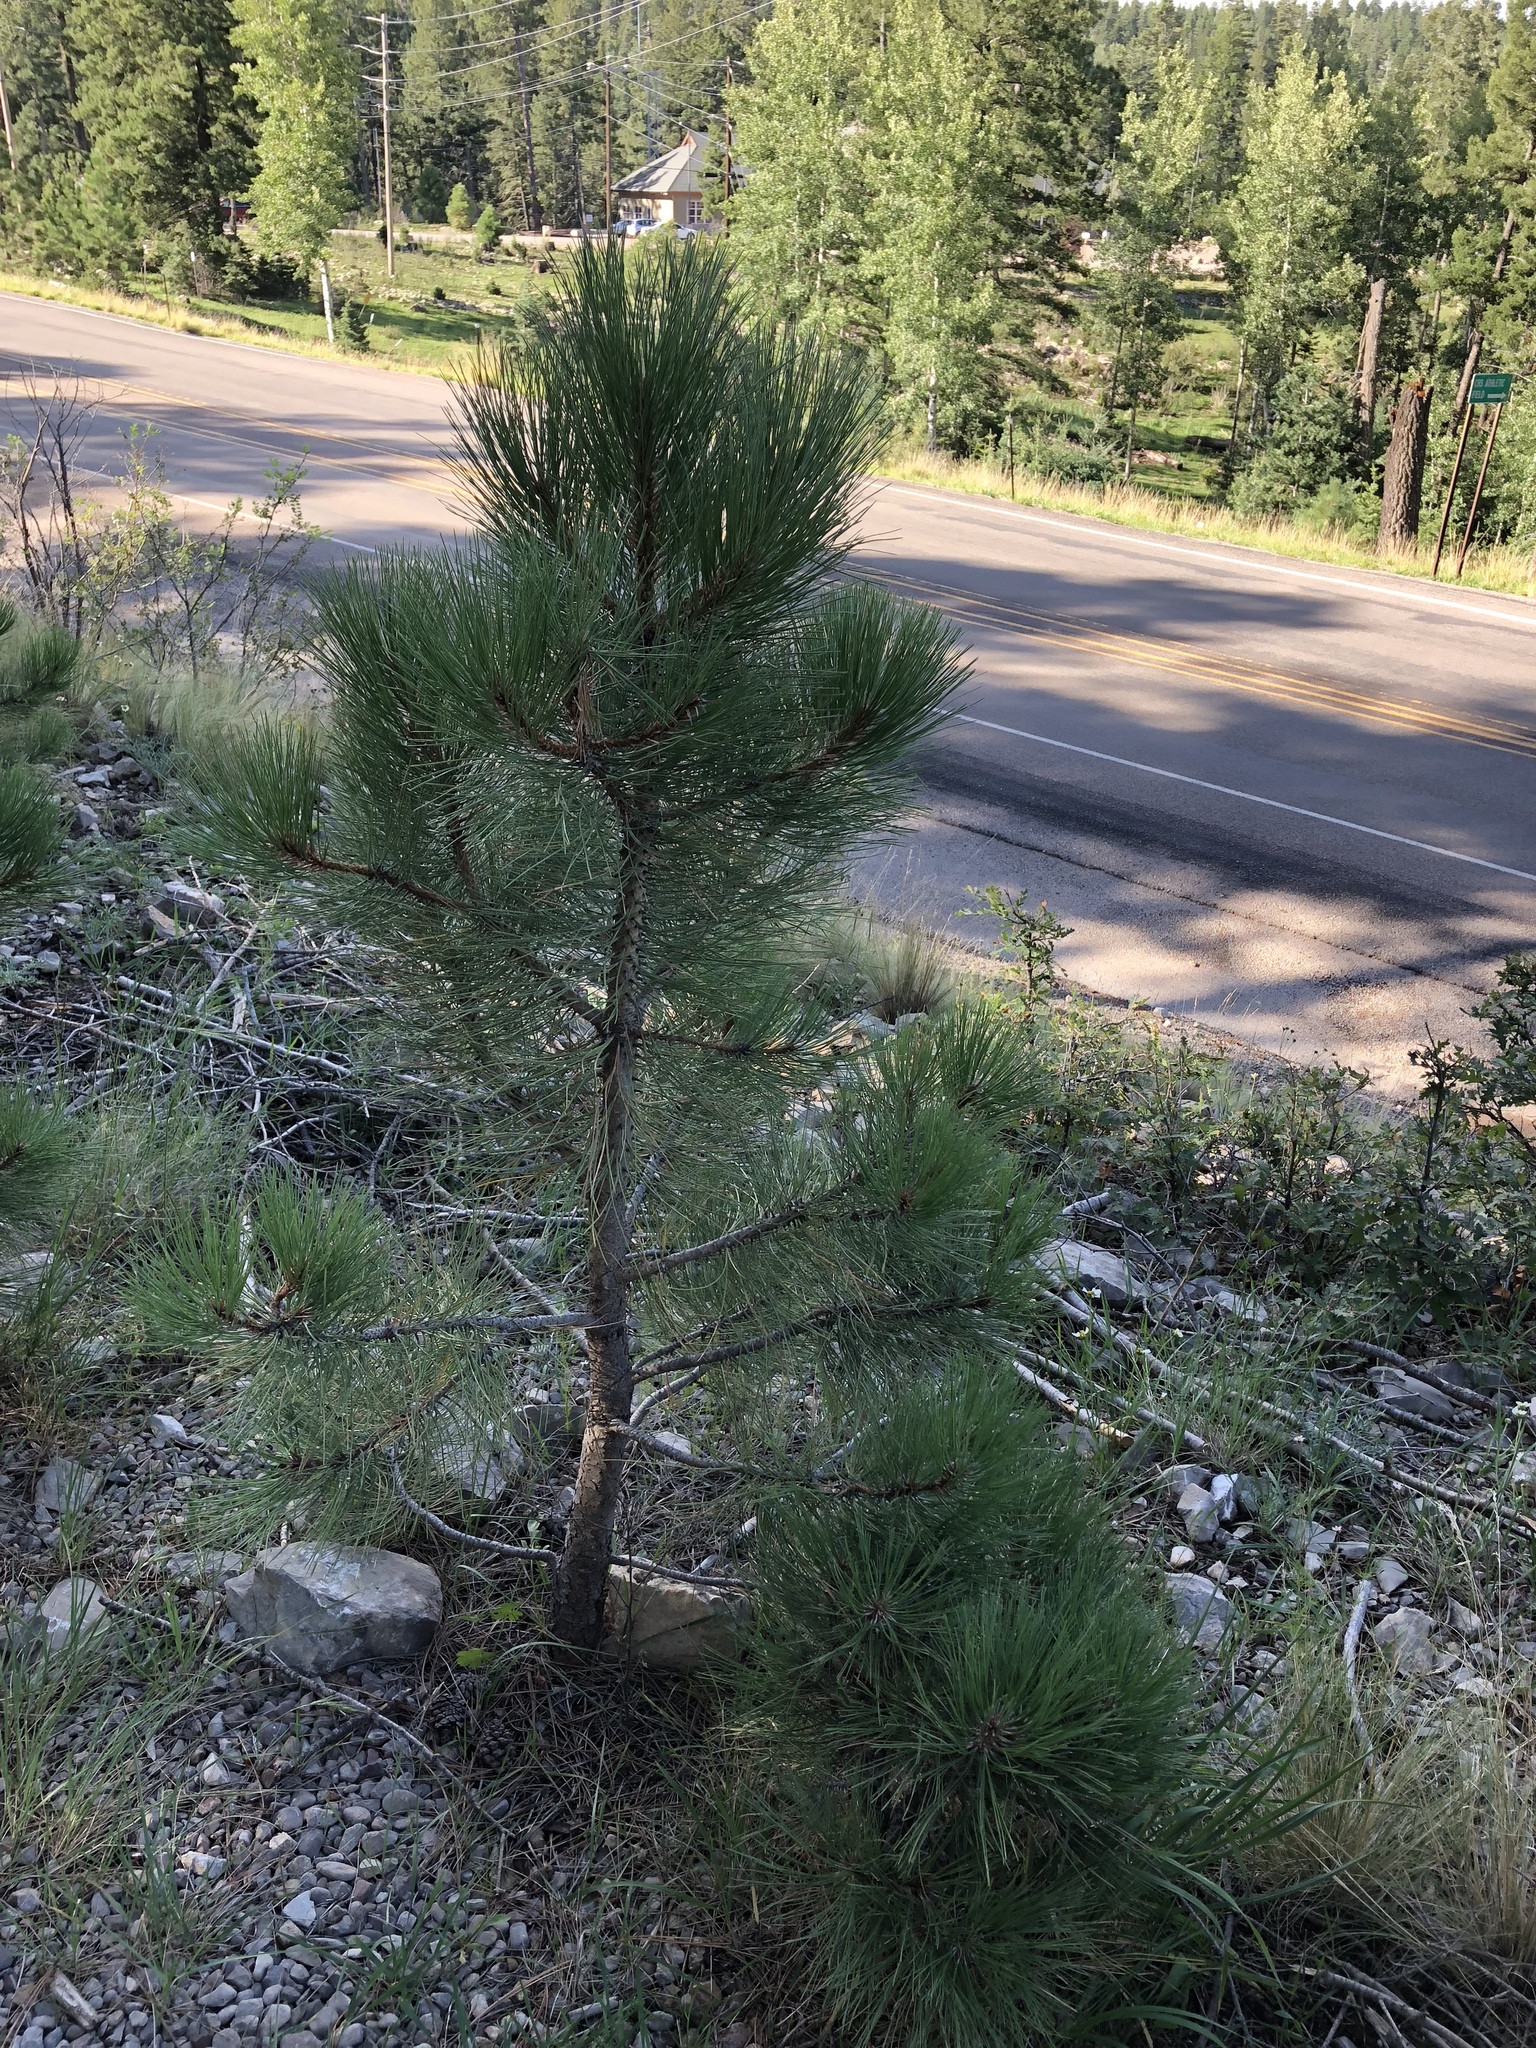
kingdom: Plantae
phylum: Tracheophyta
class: Pinopsida
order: Pinales
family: Pinaceae
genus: Pinus
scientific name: Pinus ponderosa
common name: Western yellow-pine
